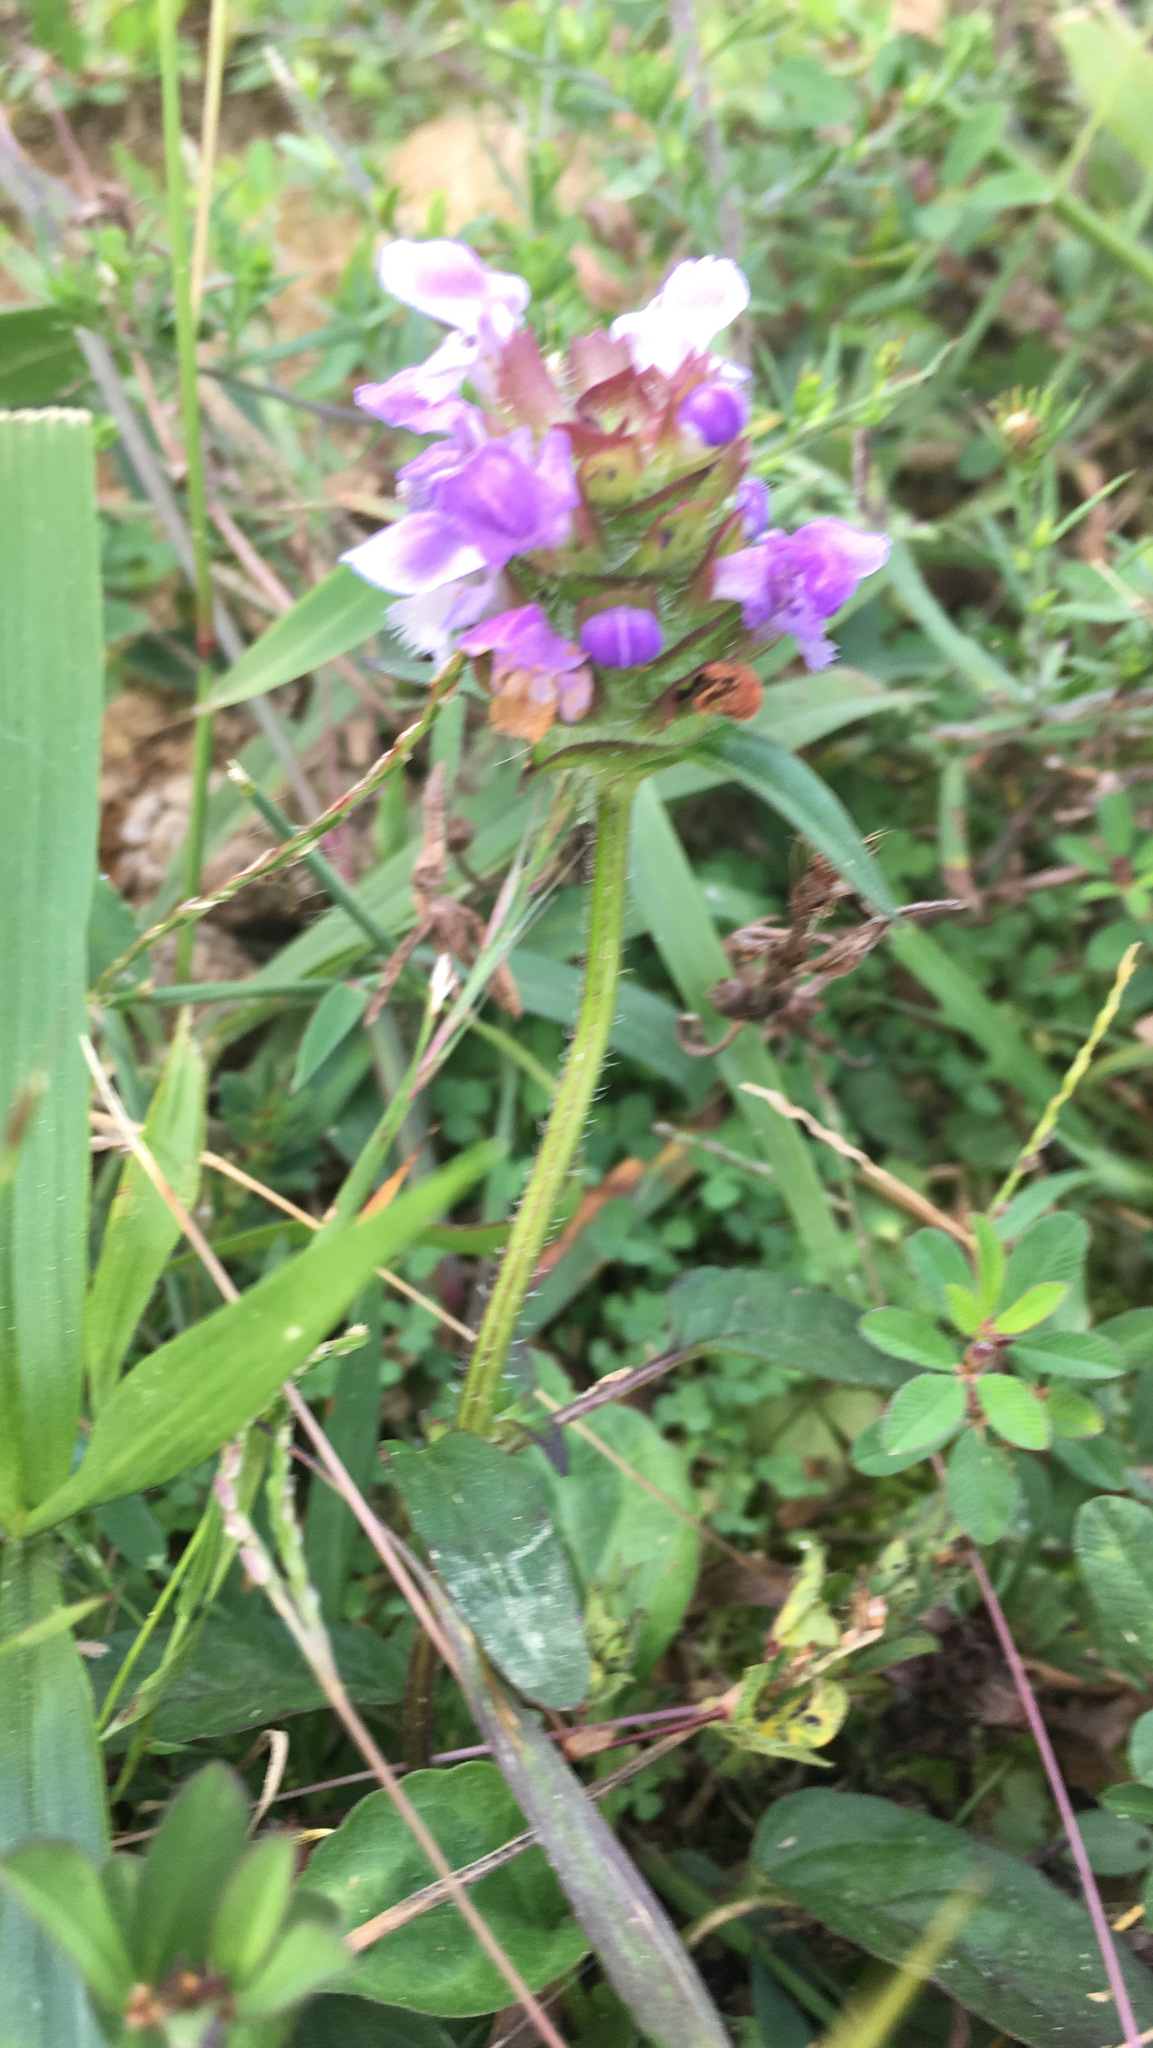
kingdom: Plantae
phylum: Tracheophyta
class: Magnoliopsida
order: Lamiales
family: Lamiaceae
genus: Prunella
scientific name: Prunella vulgaris
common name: Heal-all
